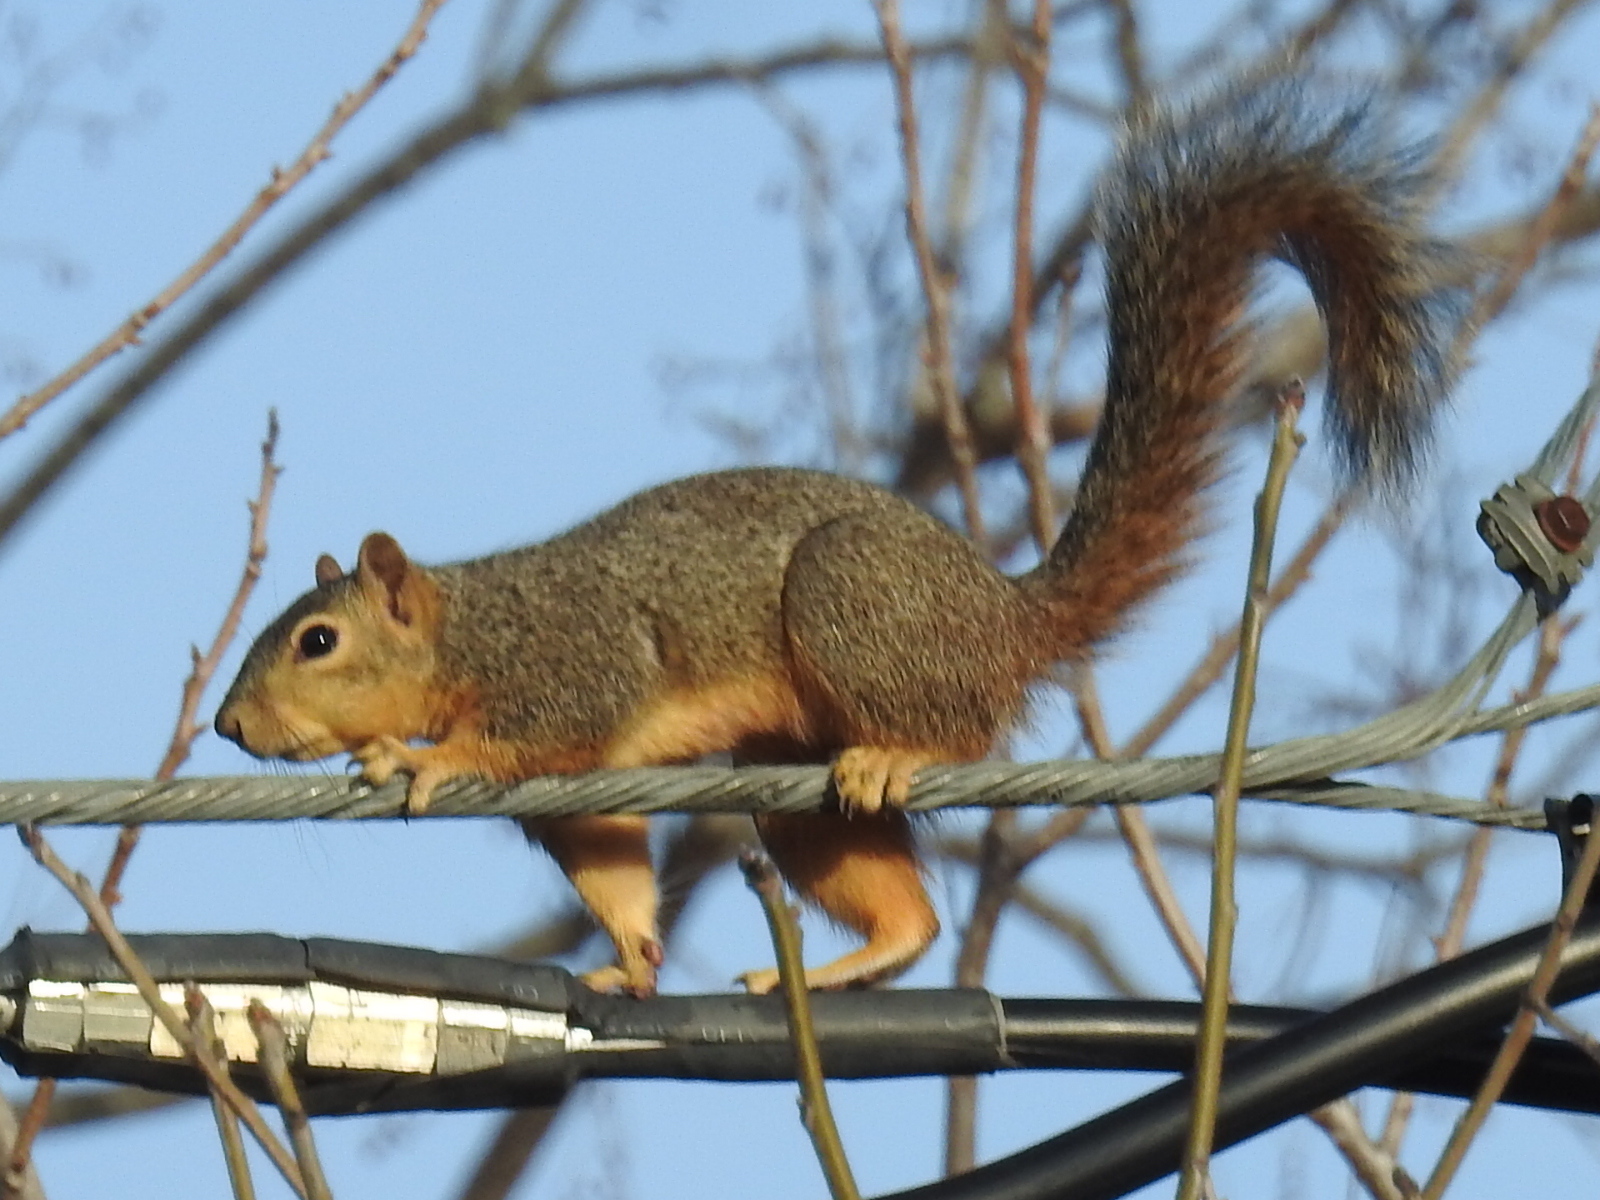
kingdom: Animalia
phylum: Chordata
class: Mammalia
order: Rodentia
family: Sciuridae
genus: Sciurus
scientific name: Sciurus niger
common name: Fox squirrel
